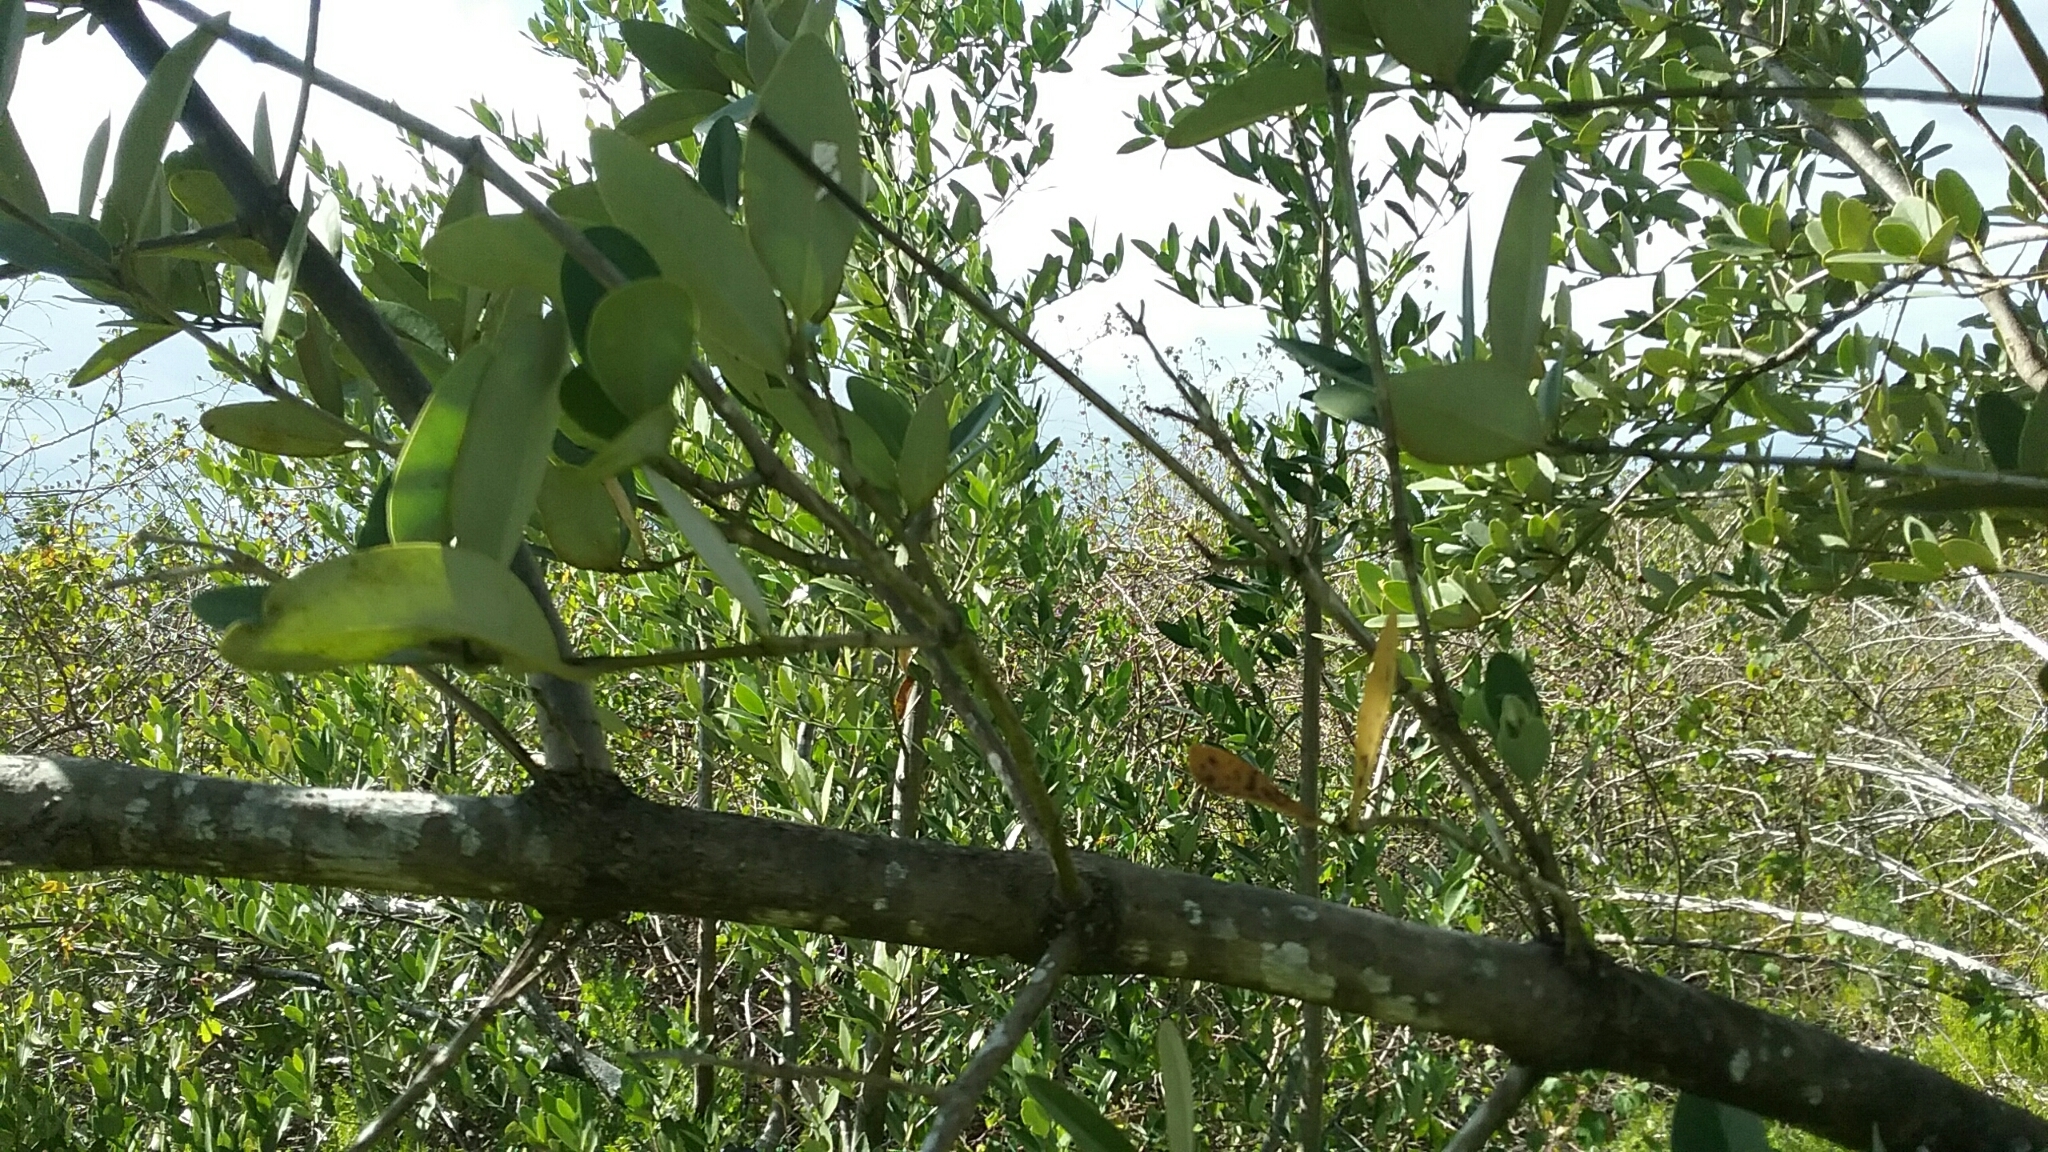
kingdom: Plantae
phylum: Tracheophyta
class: Magnoliopsida
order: Lamiales
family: Acanthaceae
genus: Avicennia
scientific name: Avicennia germinans
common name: Black mangrove
